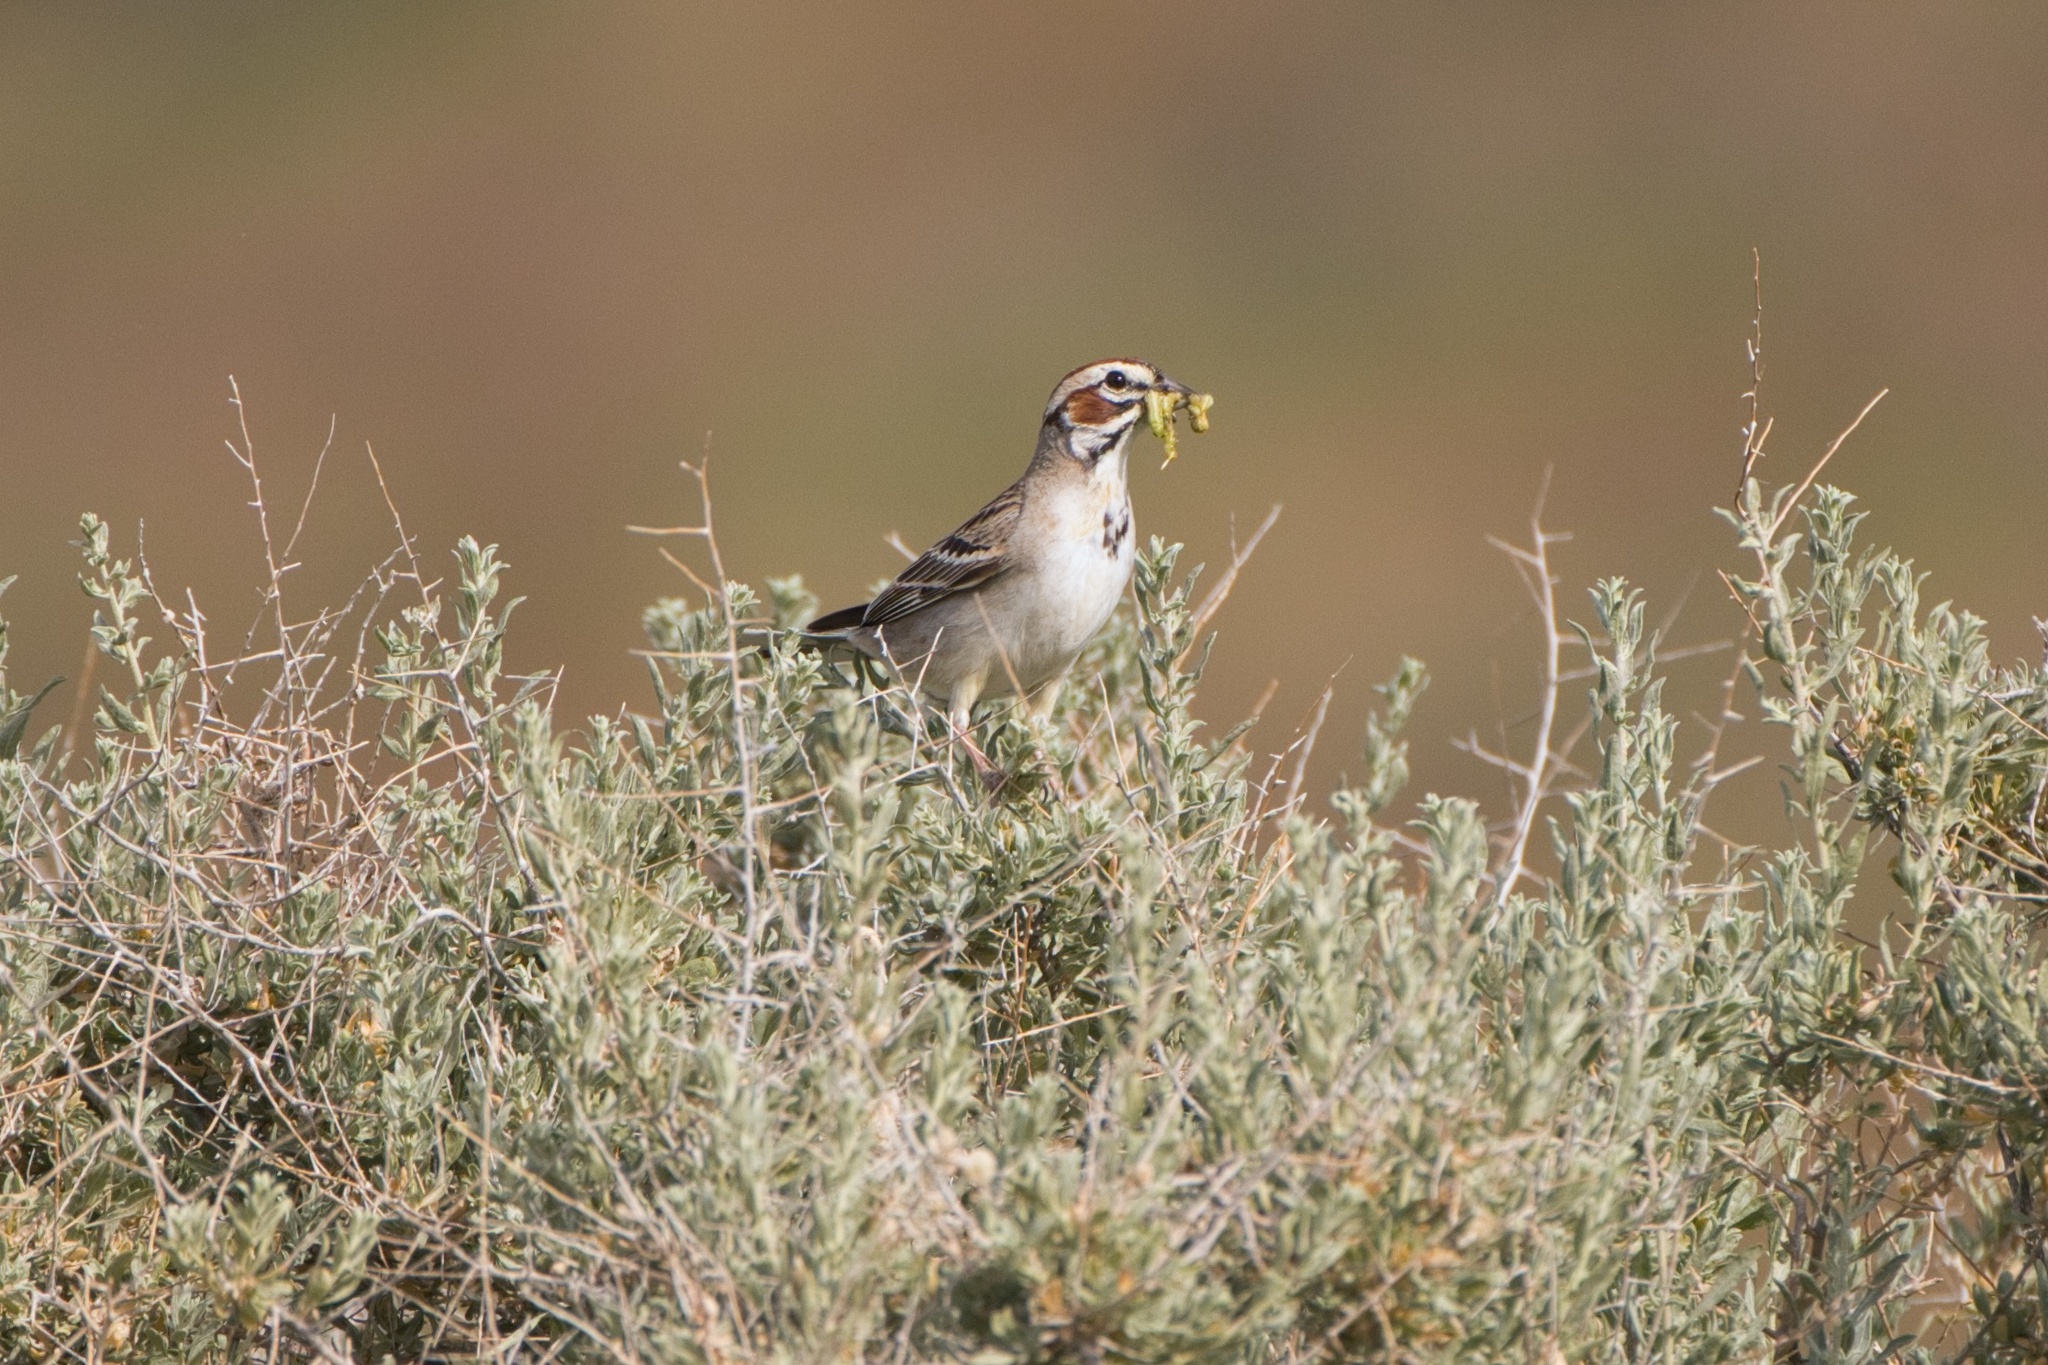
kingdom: Animalia
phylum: Chordata
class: Aves
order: Passeriformes
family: Passerellidae
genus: Chondestes
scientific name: Chondestes grammacus
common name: Lark sparrow
